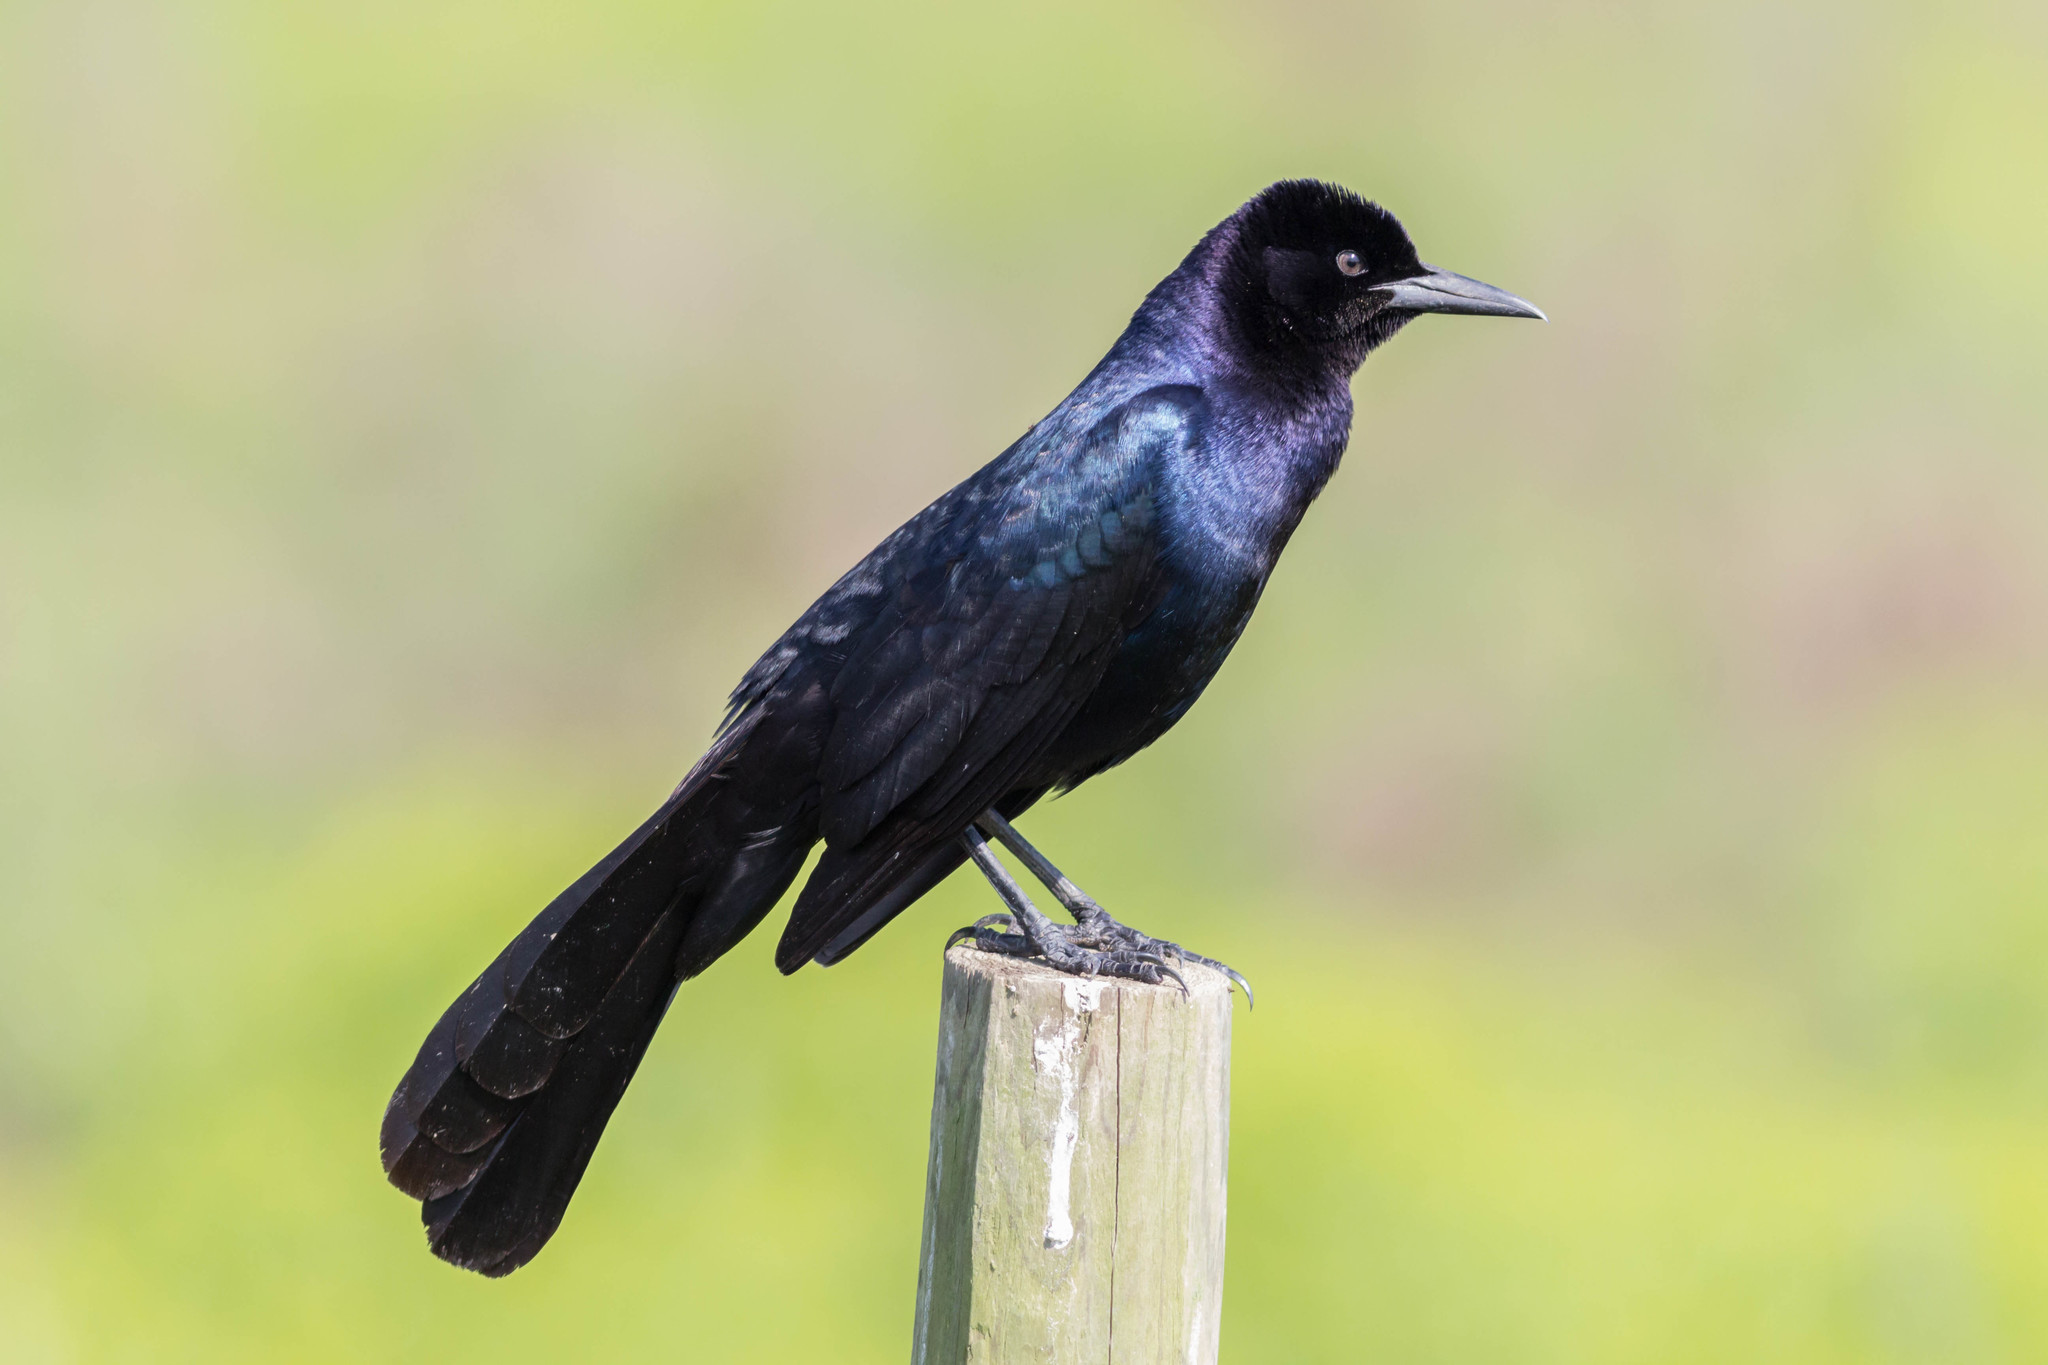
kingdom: Animalia
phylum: Chordata
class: Aves
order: Passeriformes
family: Icteridae
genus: Quiscalus
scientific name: Quiscalus major
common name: Boat-tailed grackle
